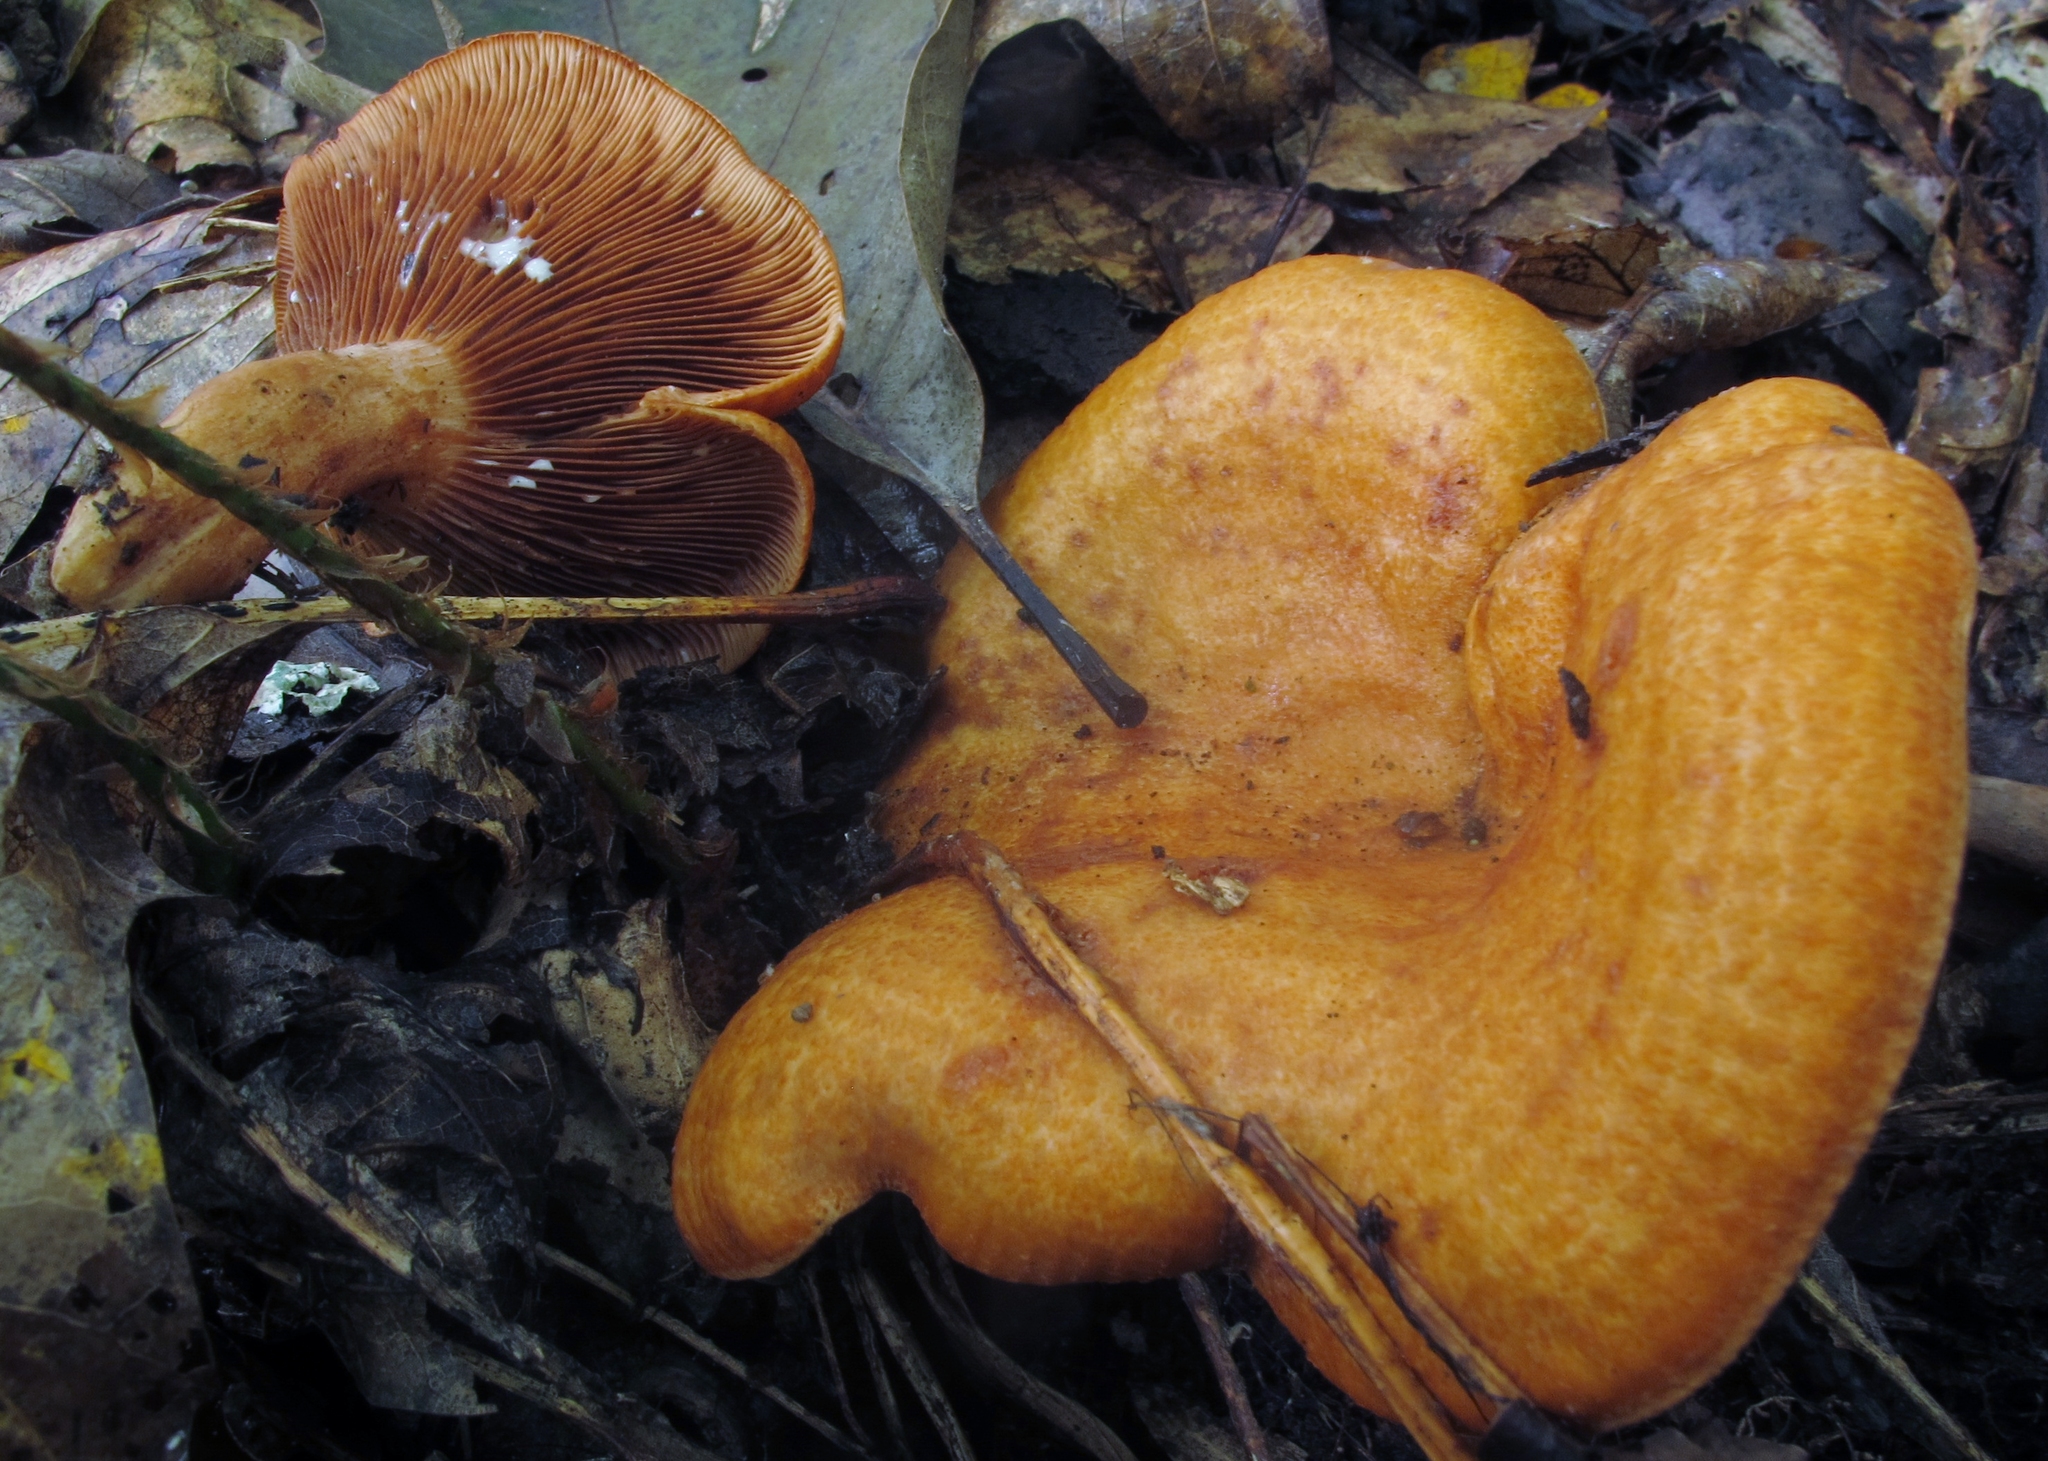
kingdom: Fungi
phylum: Basidiomycota
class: Agaricomycetes
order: Russulales
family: Russulaceae
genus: Lactarius
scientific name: Lactarius peckii
